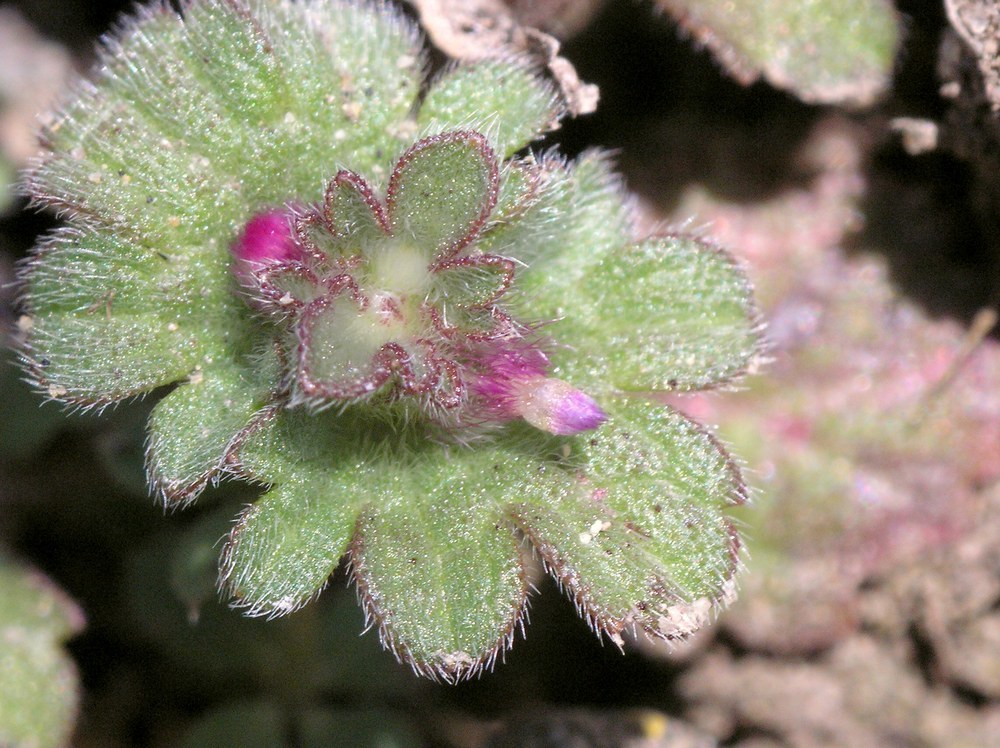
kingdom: Plantae
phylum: Tracheophyta
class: Magnoliopsida
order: Lamiales
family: Lamiaceae
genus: Lamium
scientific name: Lamium amplexicaule
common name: Henbit dead-nettle
